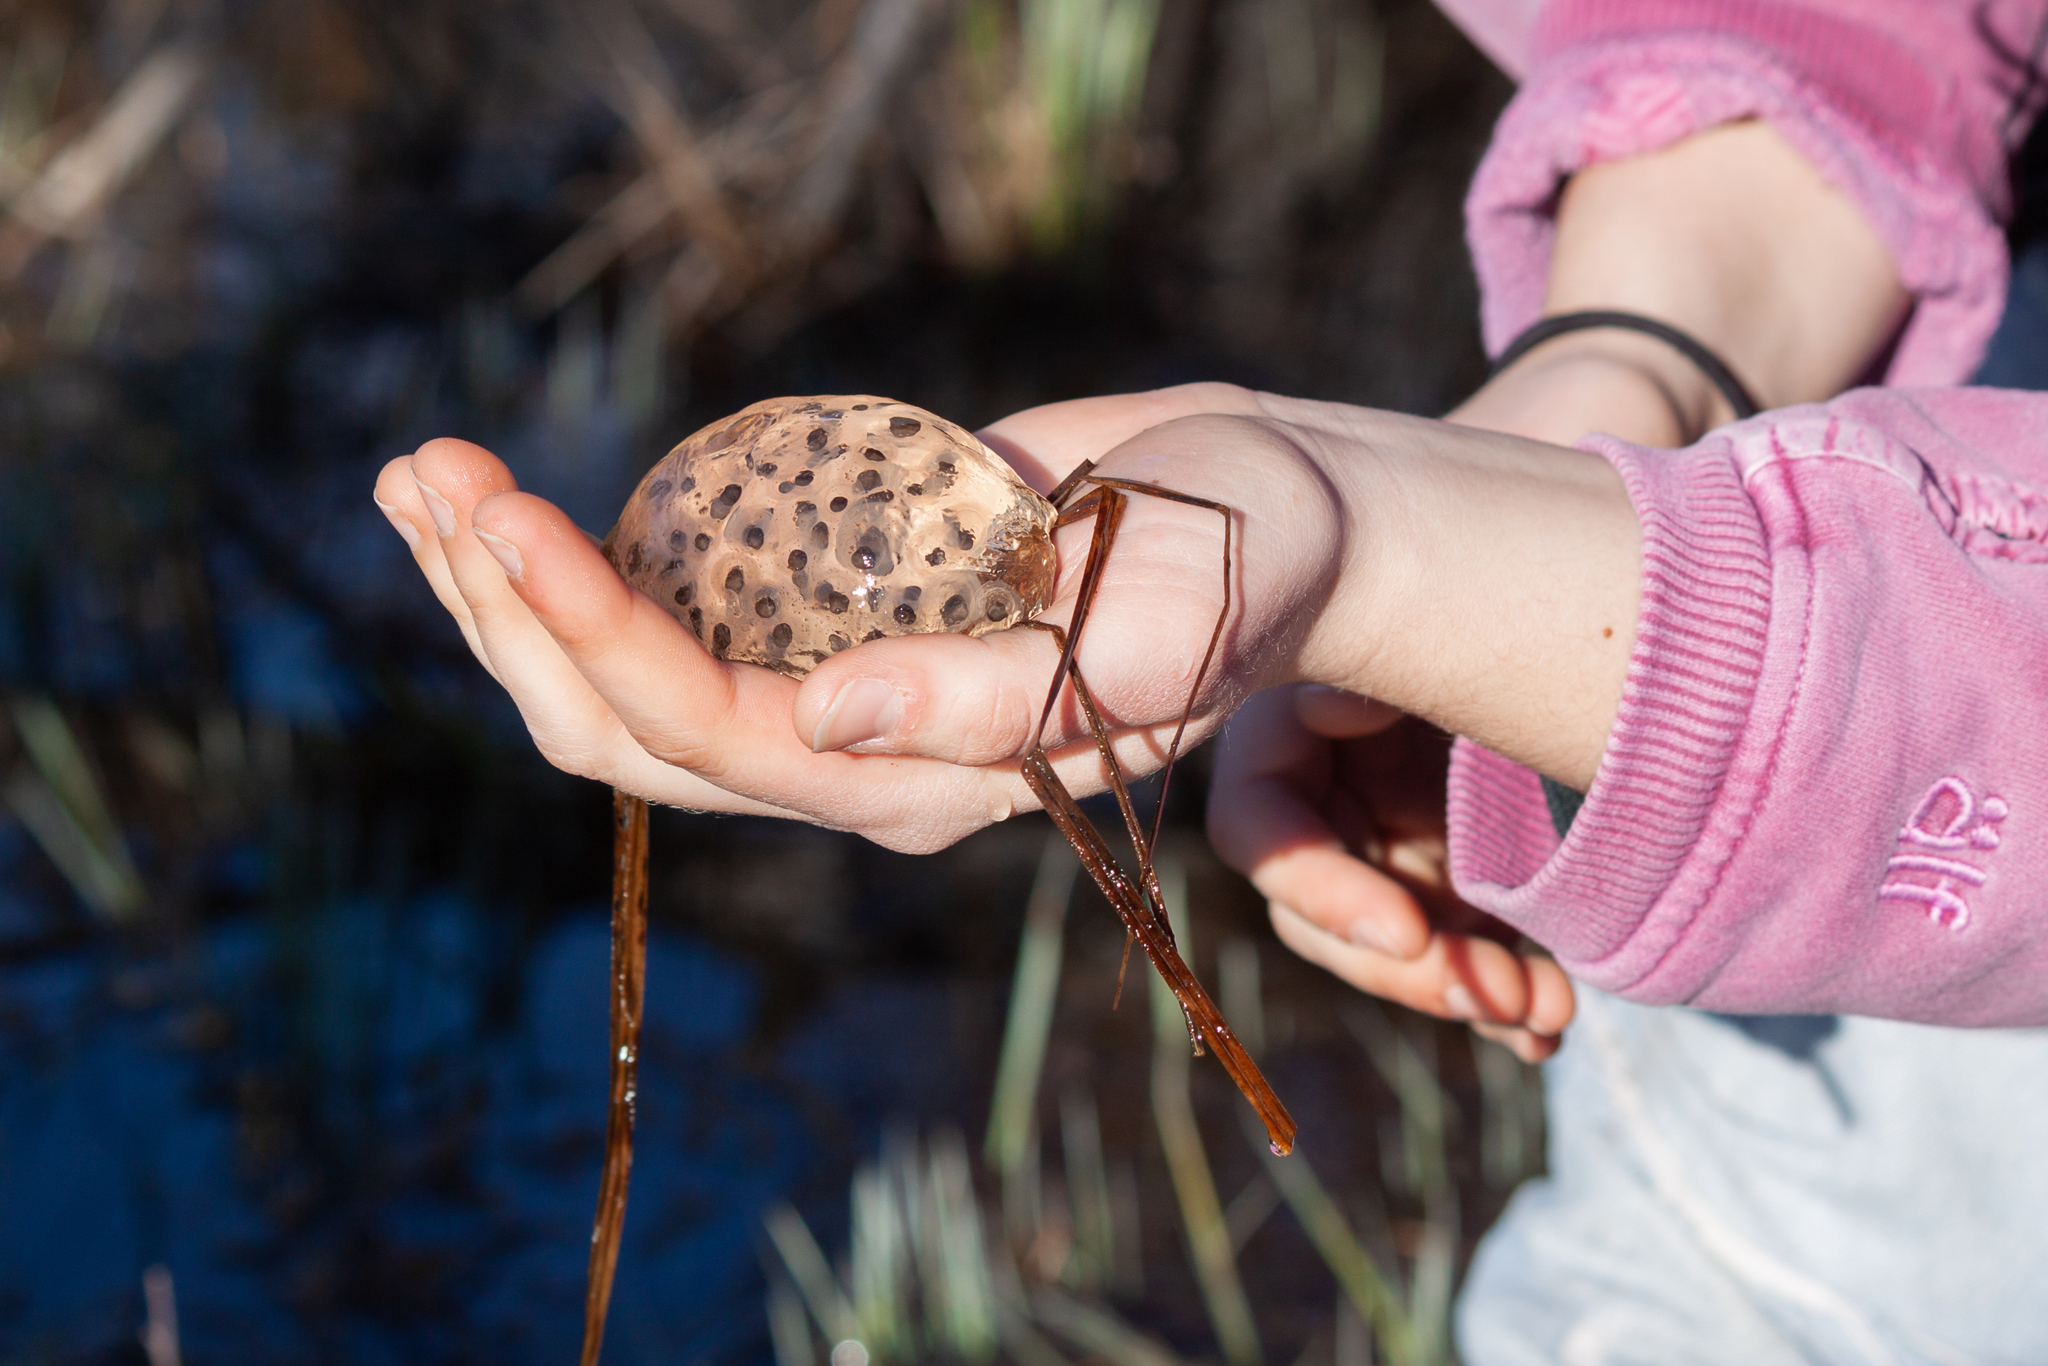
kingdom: Animalia
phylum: Chordata
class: Amphibia
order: Caudata
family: Ambystomatidae
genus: Ambystoma
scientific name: Ambystoma maculatum
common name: Spotted salamander
